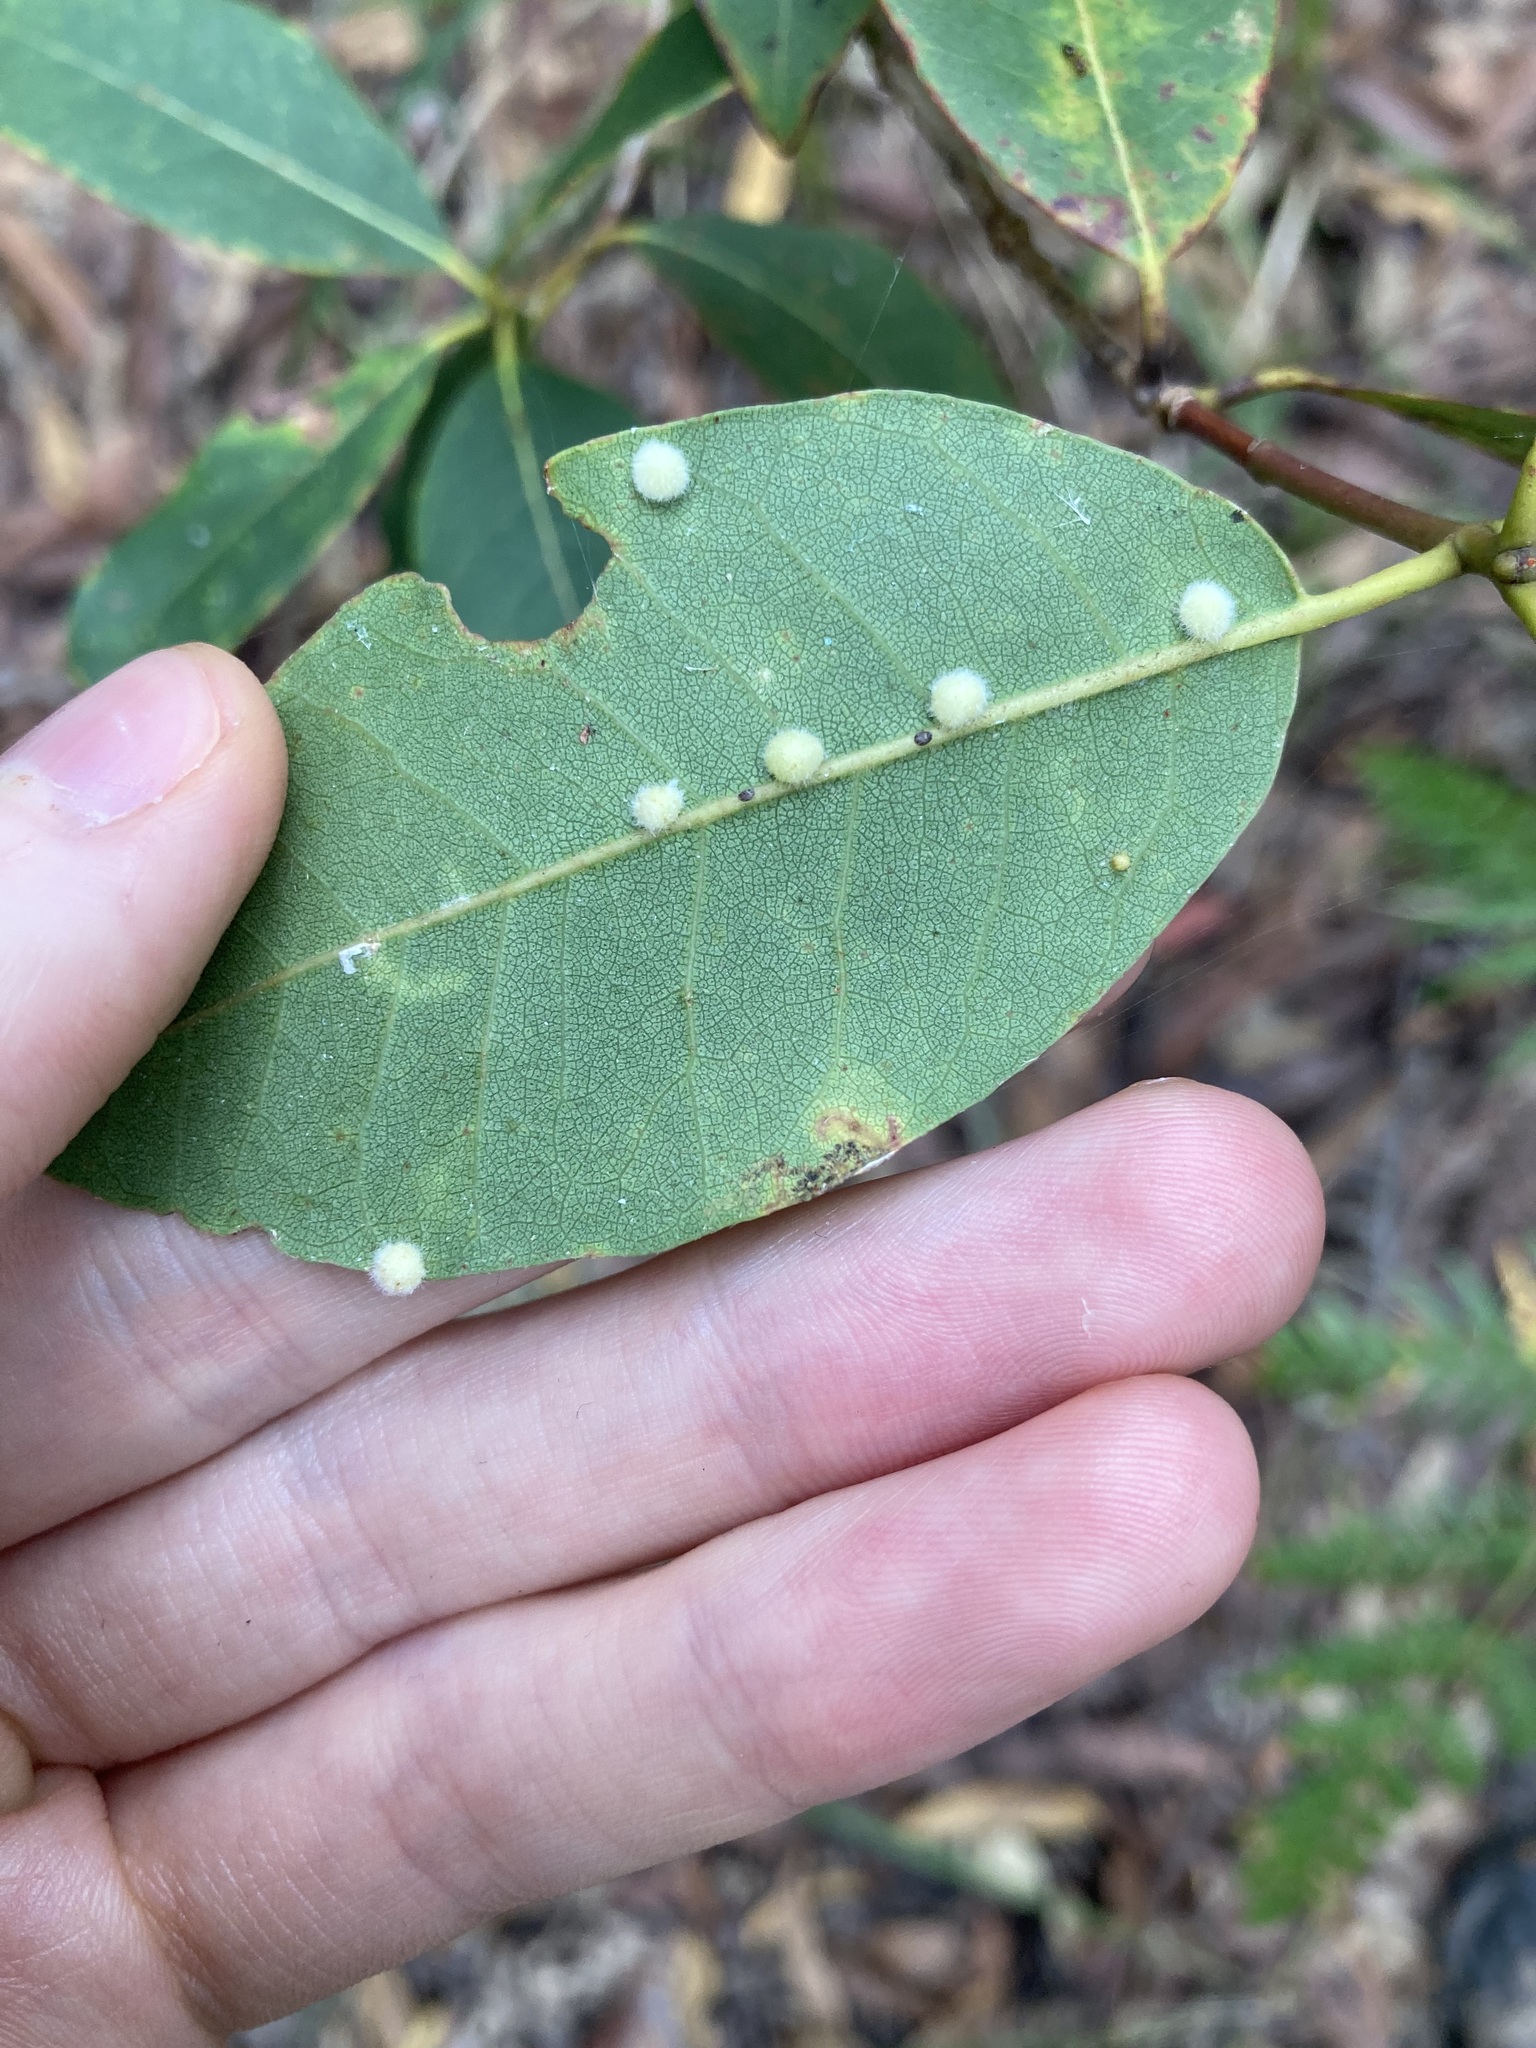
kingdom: Plantae
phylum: Tracheophyta
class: Magnoliopsida
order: Myrtales
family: Myrtaceae
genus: Syncarpia
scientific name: Syncarpia glomulifera
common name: Turpentine tree
